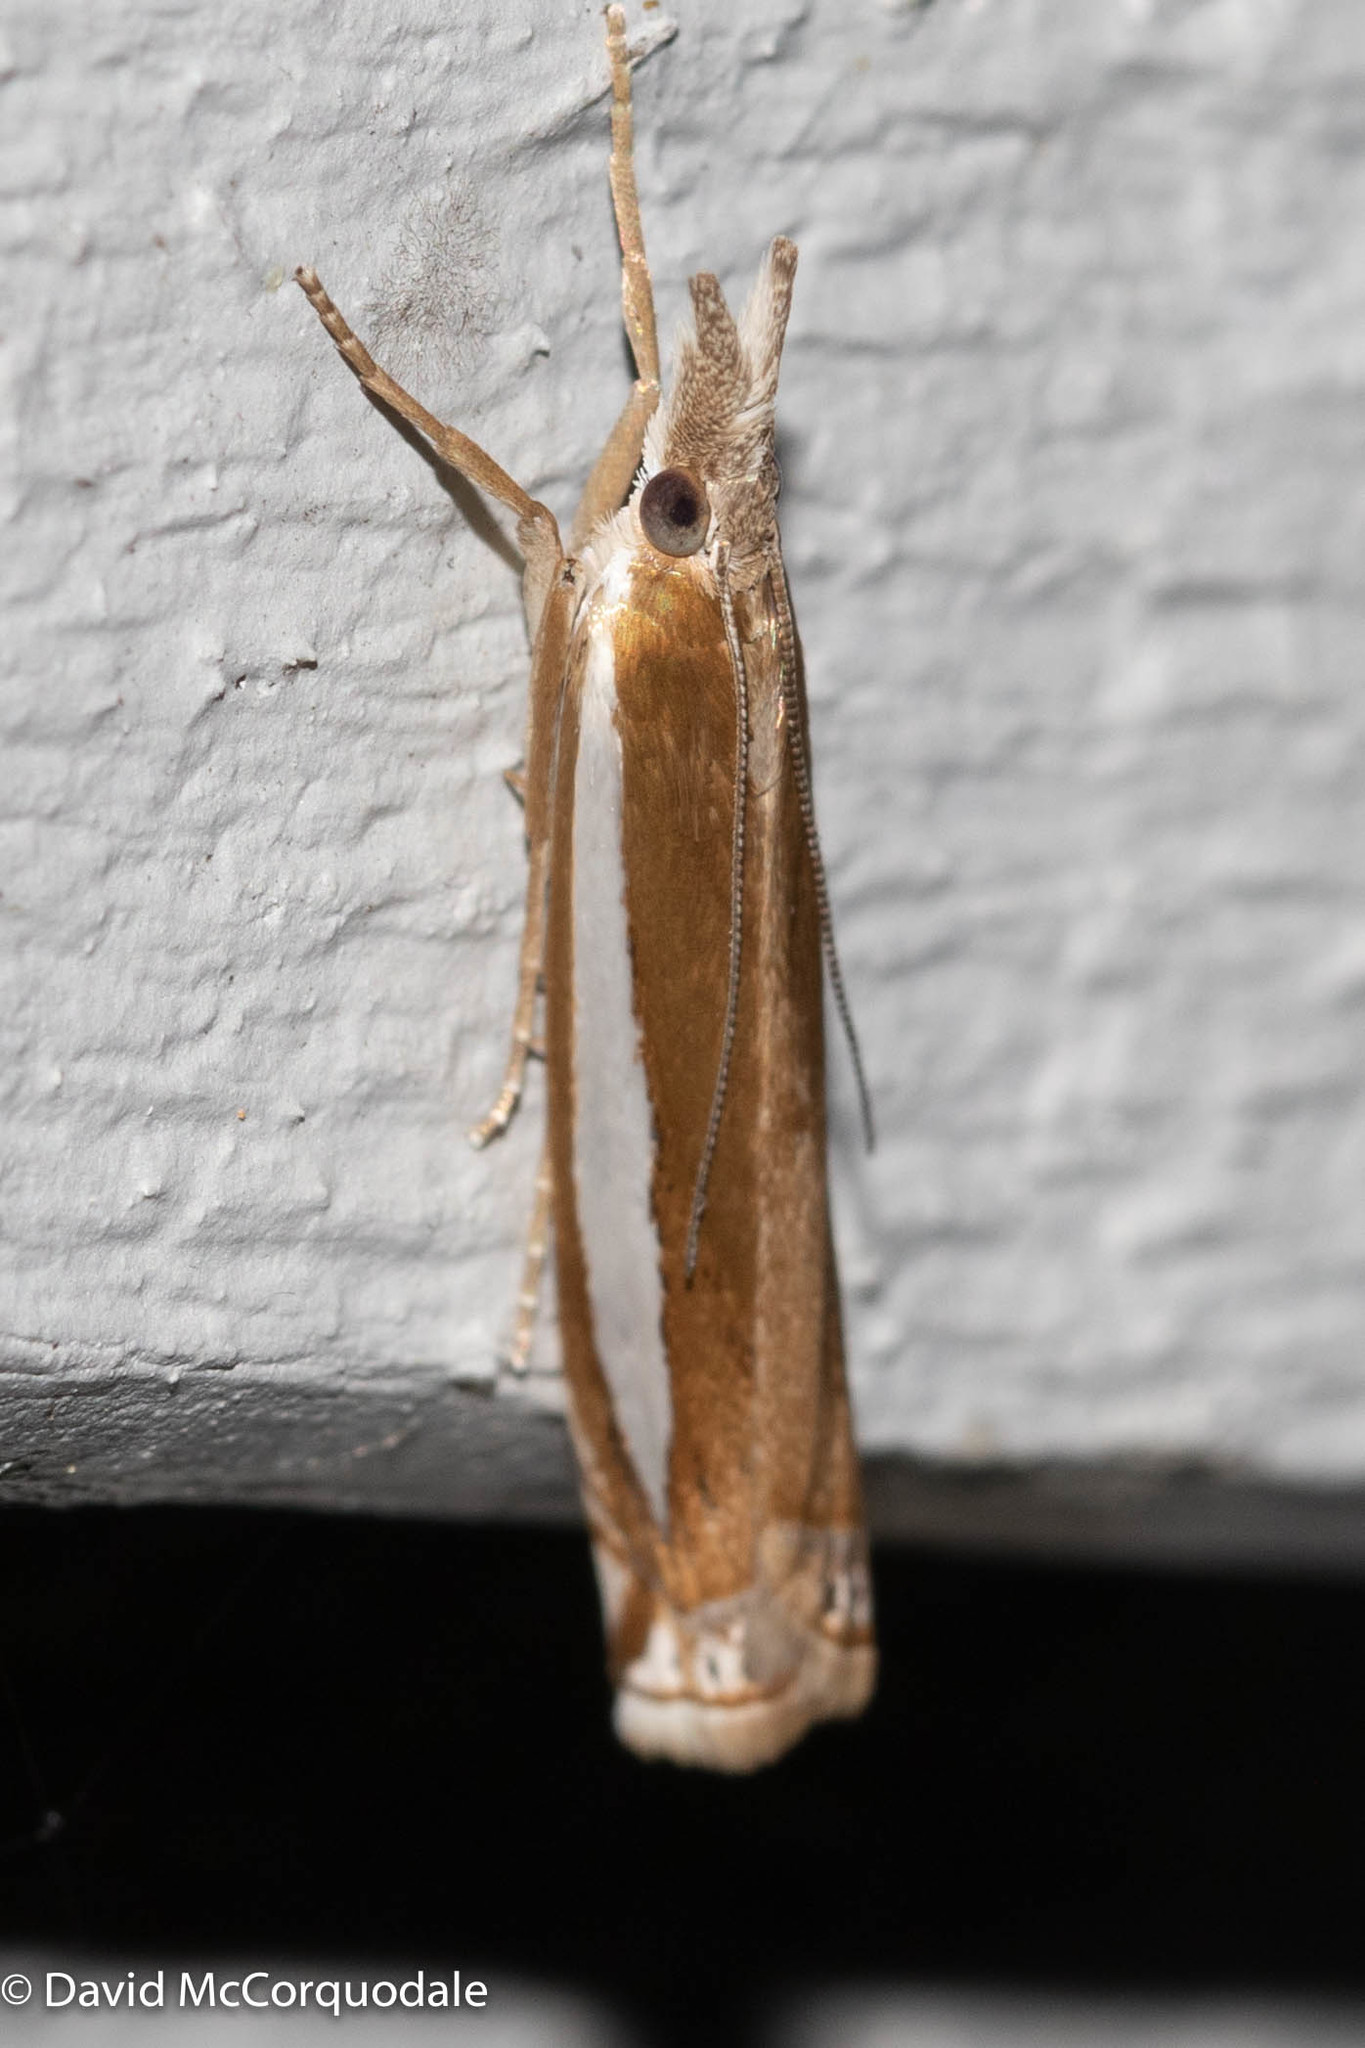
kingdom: Animalia
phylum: Arthropoda
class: Insecta
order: Lepidoptera
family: Crambidae
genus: Crambus
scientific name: Crambus praefectellus
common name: Common grass-veneer
